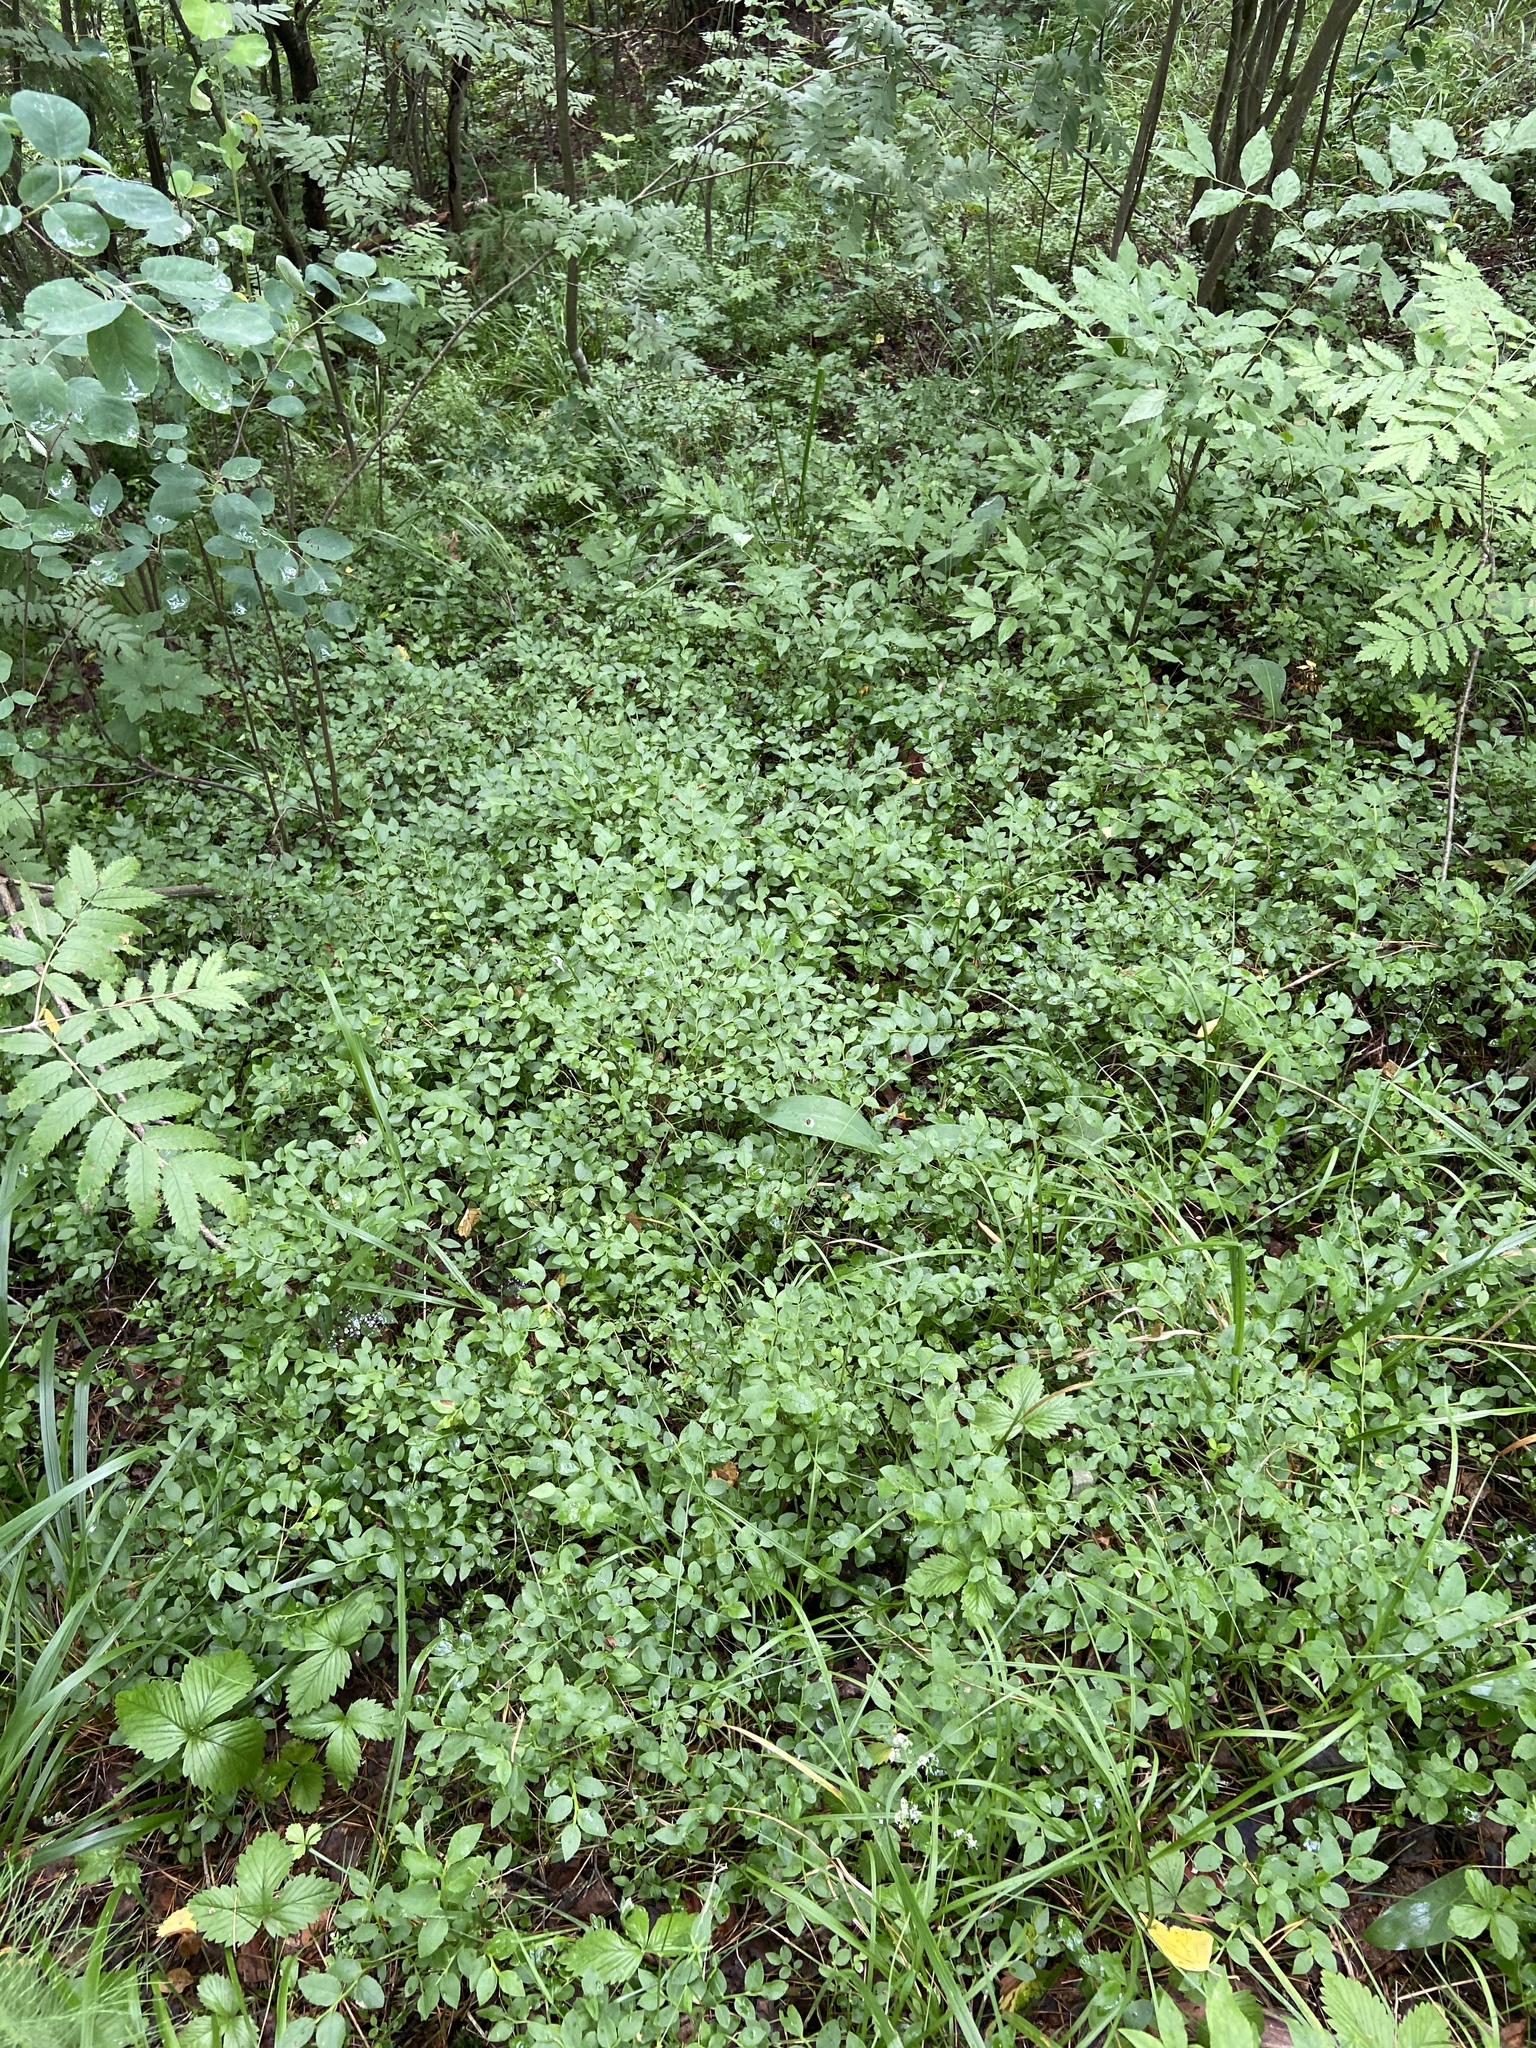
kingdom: Plantae
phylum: Tracheophyta
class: Magnoliopsida
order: Ericales
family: Ericaceae
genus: Vaccinium
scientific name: Vaccinium myrtillus
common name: Bilberry
